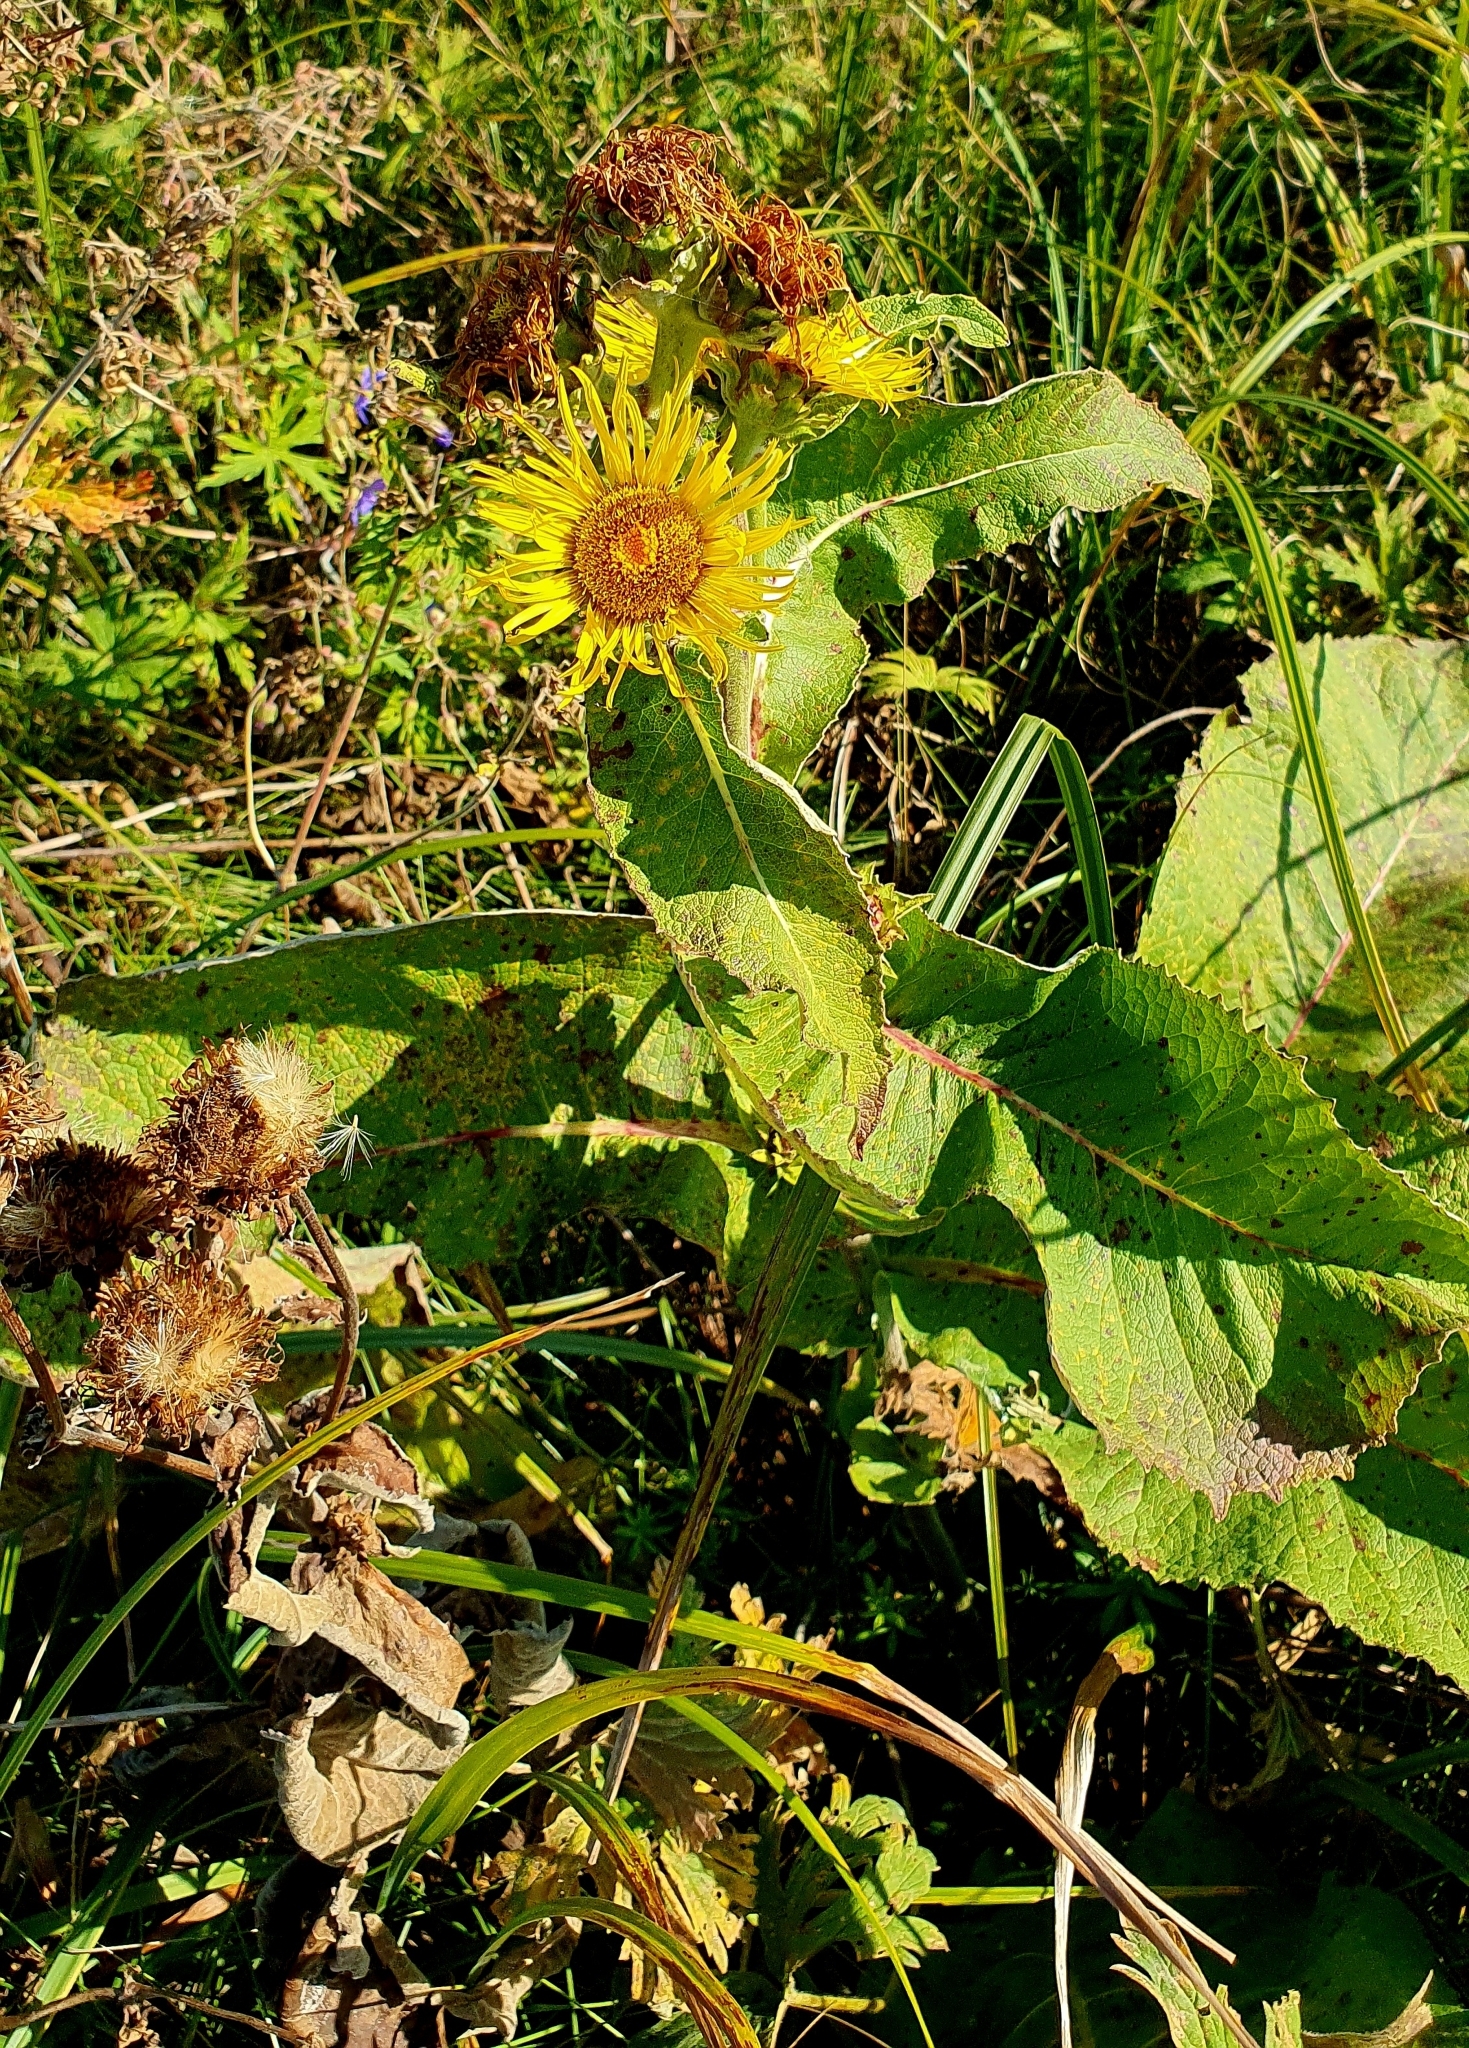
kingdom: Plantae
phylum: Tracheophyta
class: Magnoliopsida
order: Asterales
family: Asteraceae
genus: Inula
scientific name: Inula helenium
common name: Elecampane
